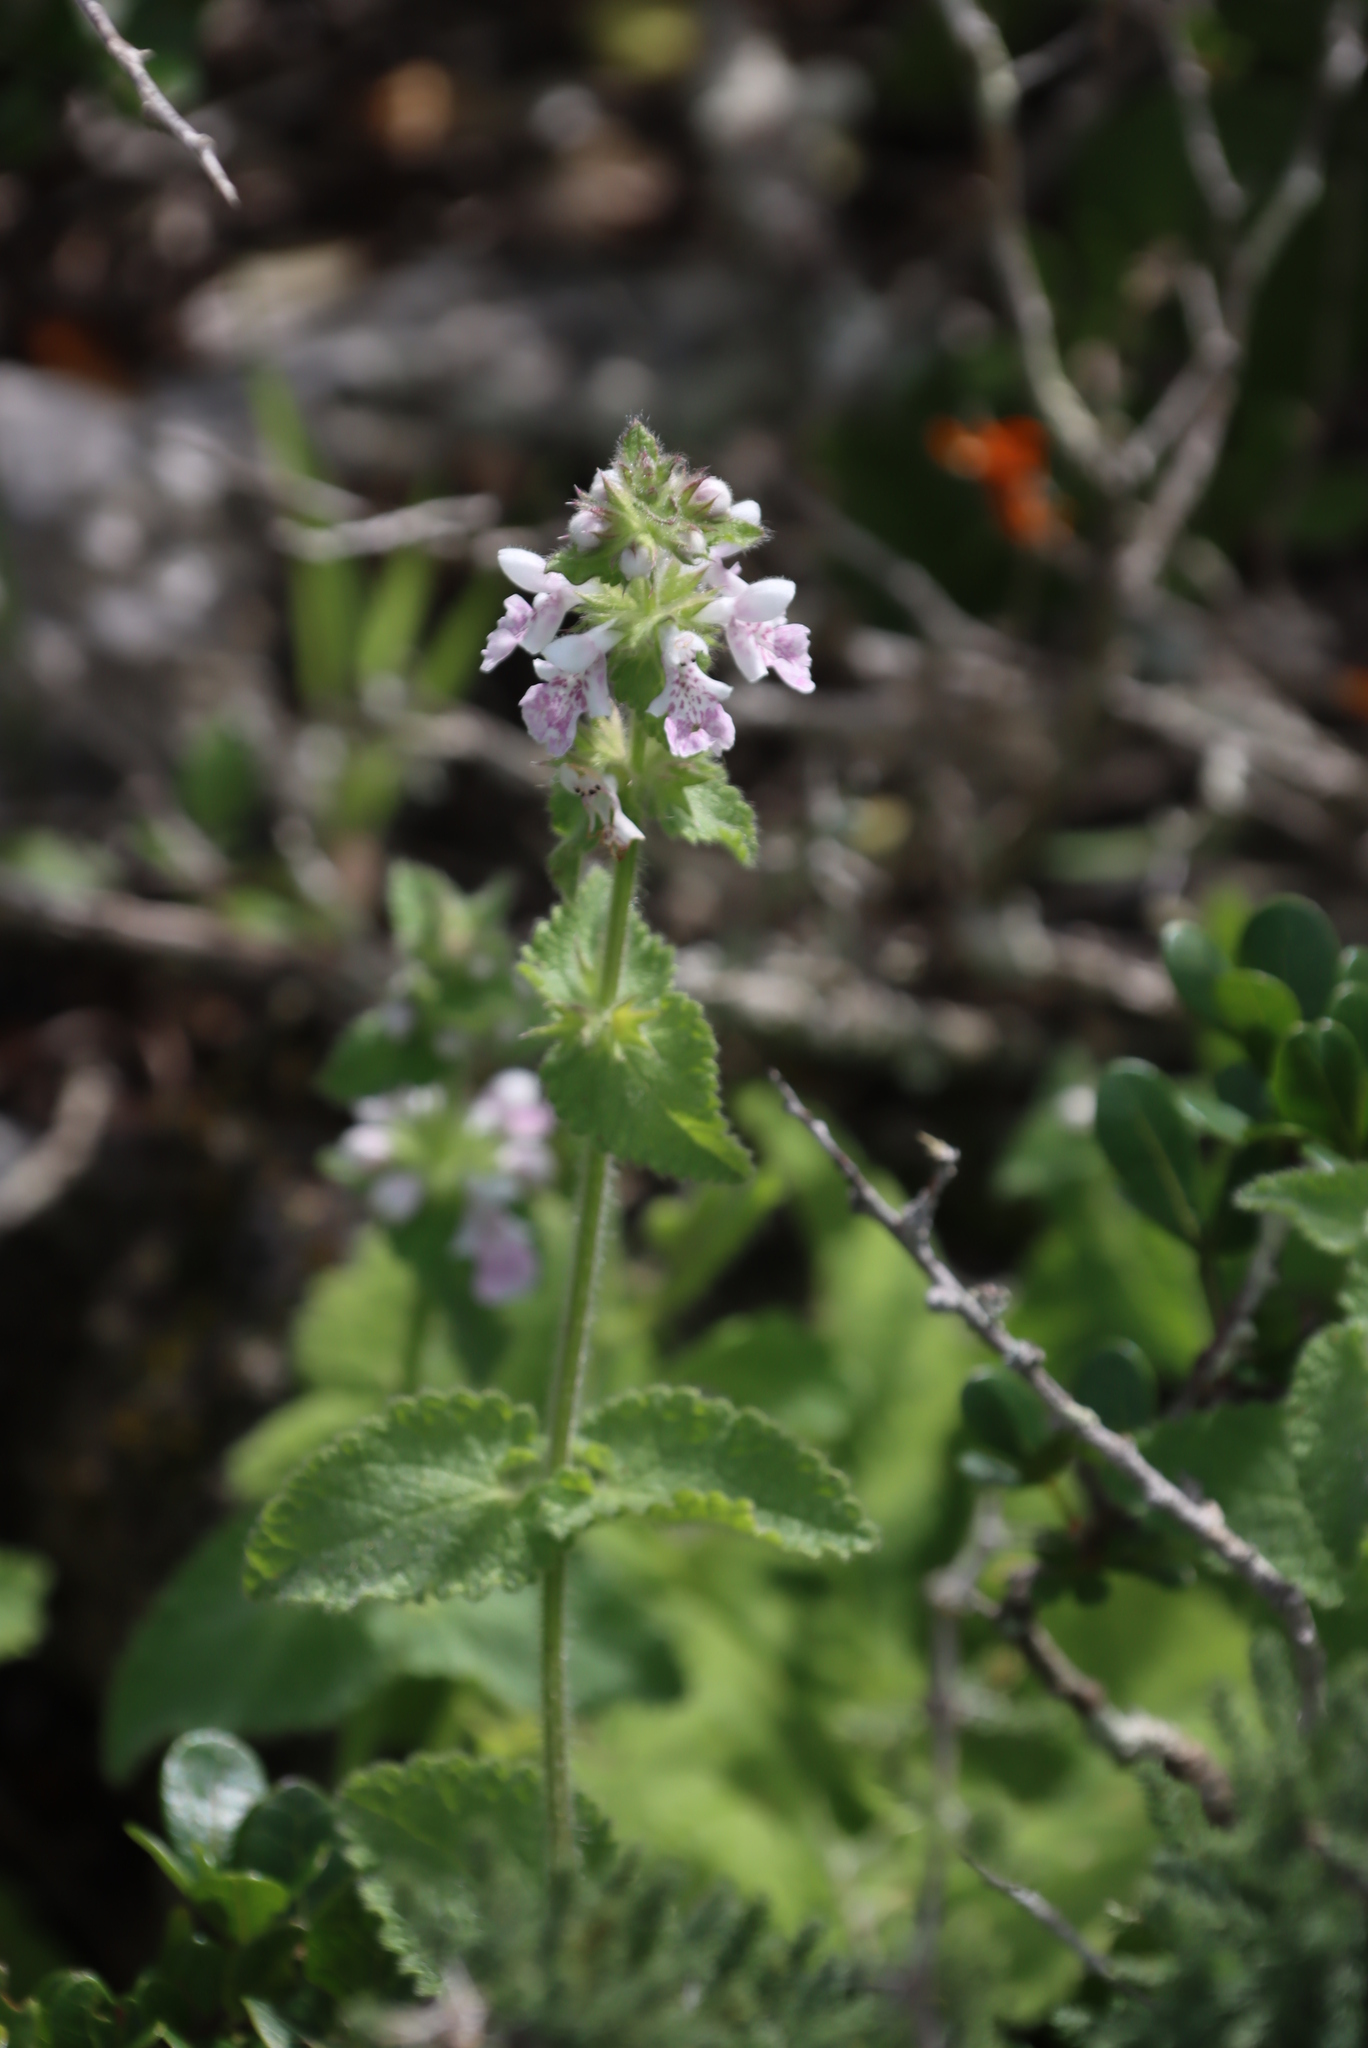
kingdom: Plantae
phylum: Tracheophyta
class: Magnoliopsida
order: Lamiales
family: Lamiaceae
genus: Stachys
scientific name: Stachys bolusii
